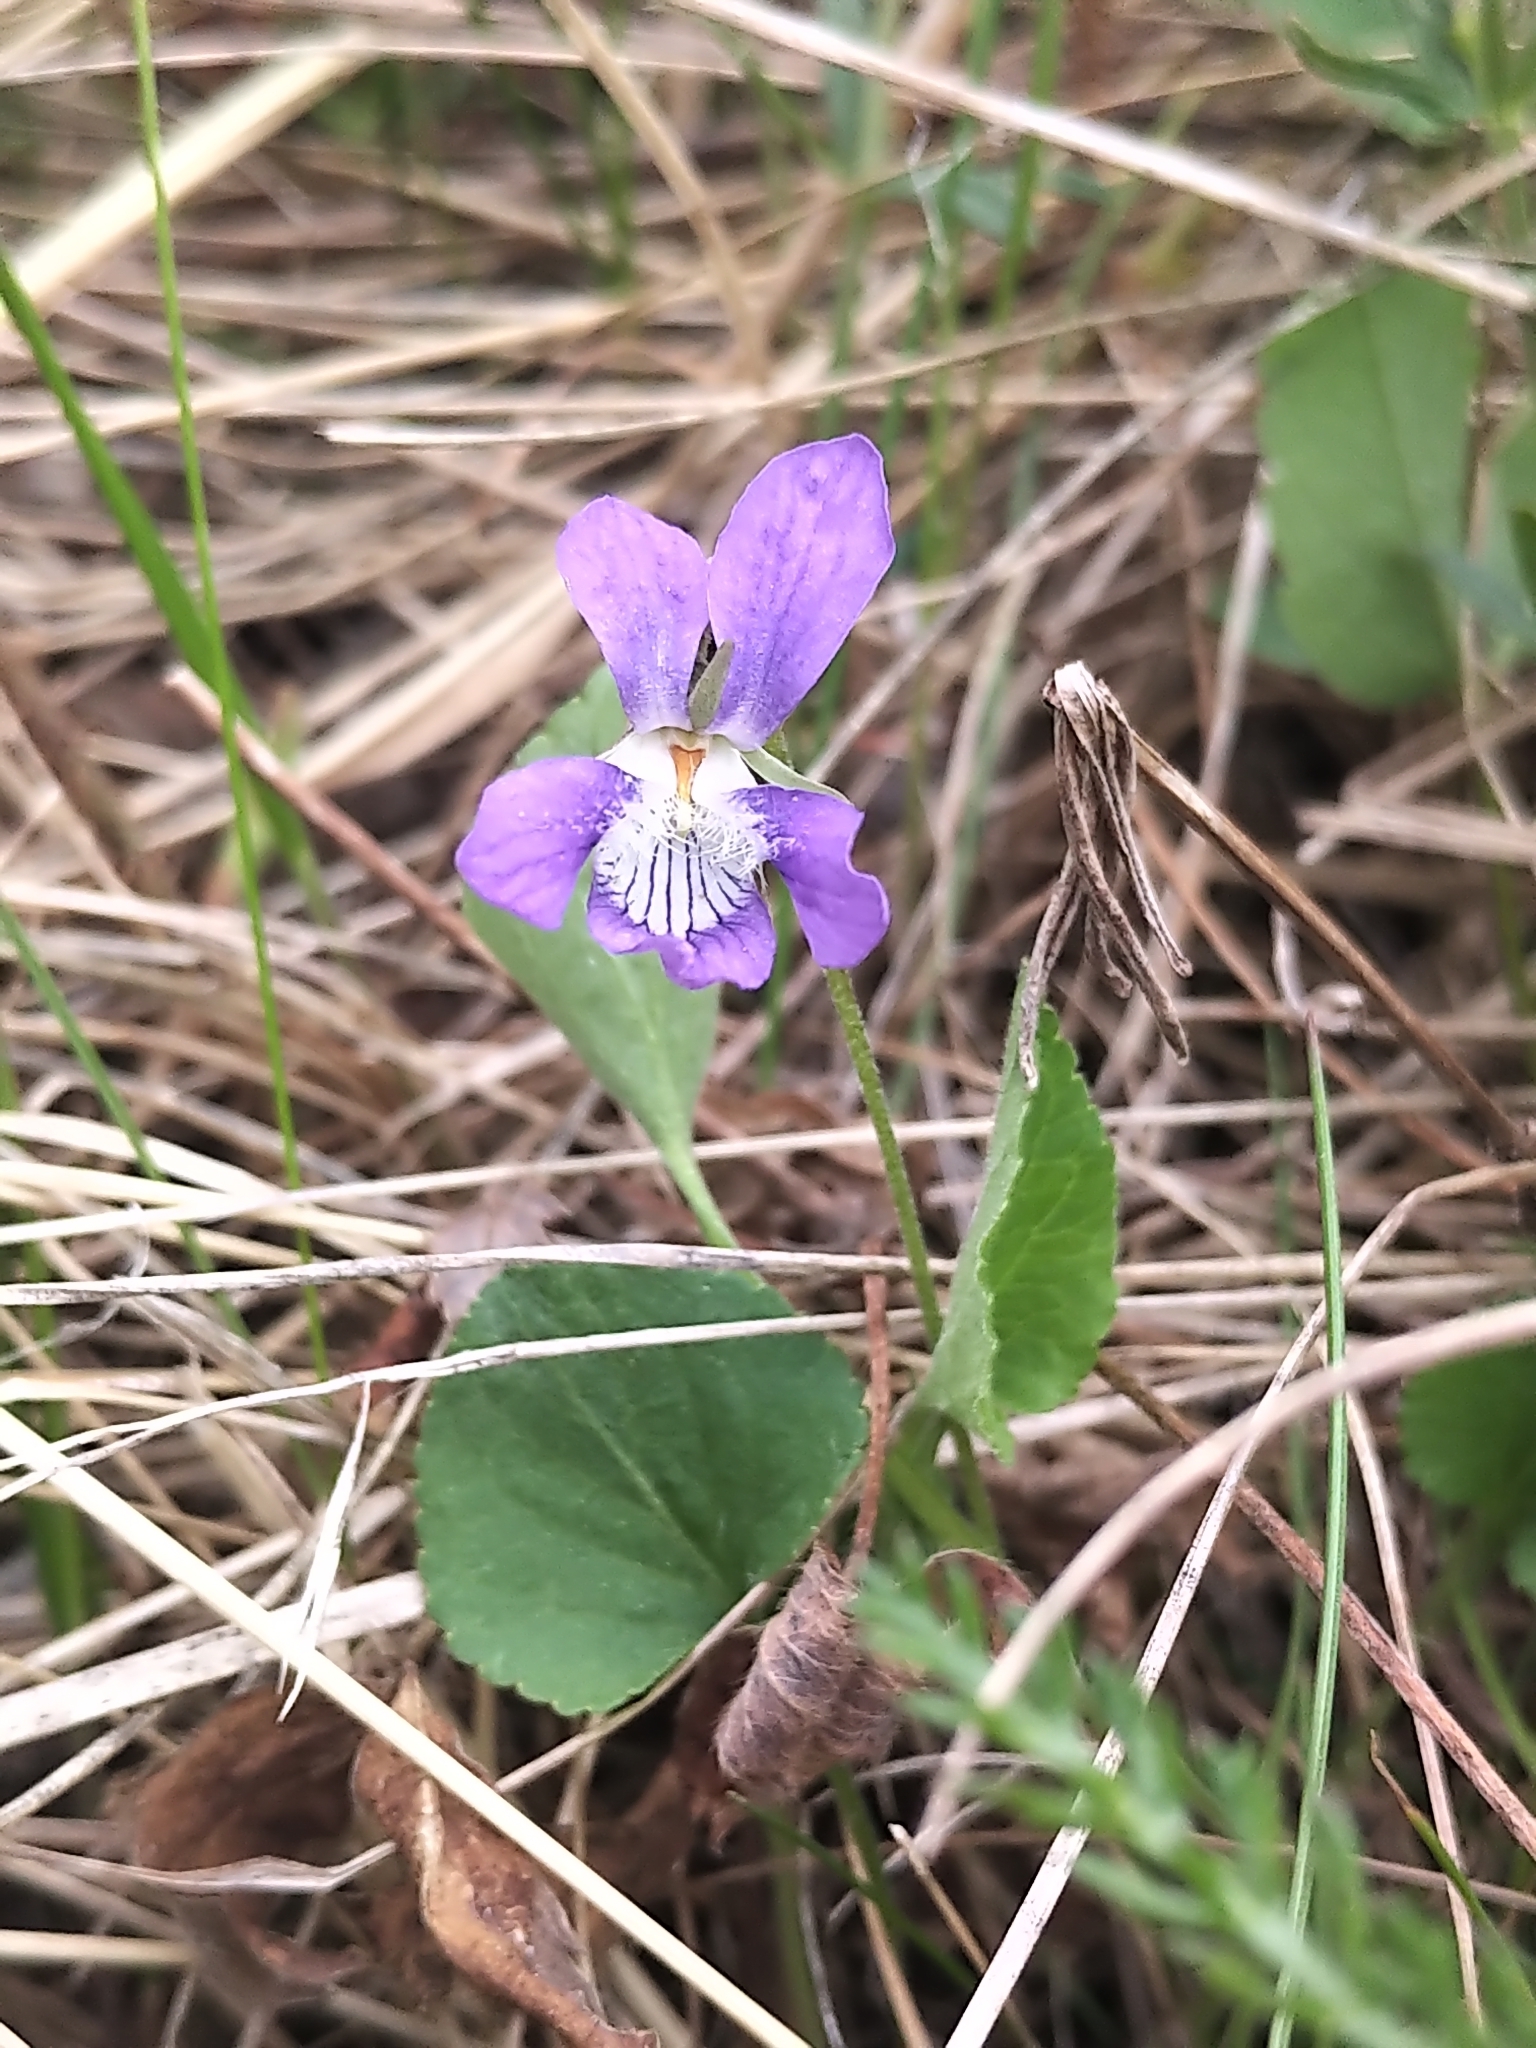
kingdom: Plantae
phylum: Tracheophyta
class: Magnoliopsida
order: Malpighiales
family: Violaceae
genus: Viola
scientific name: Viola adunca
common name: Sand violet
